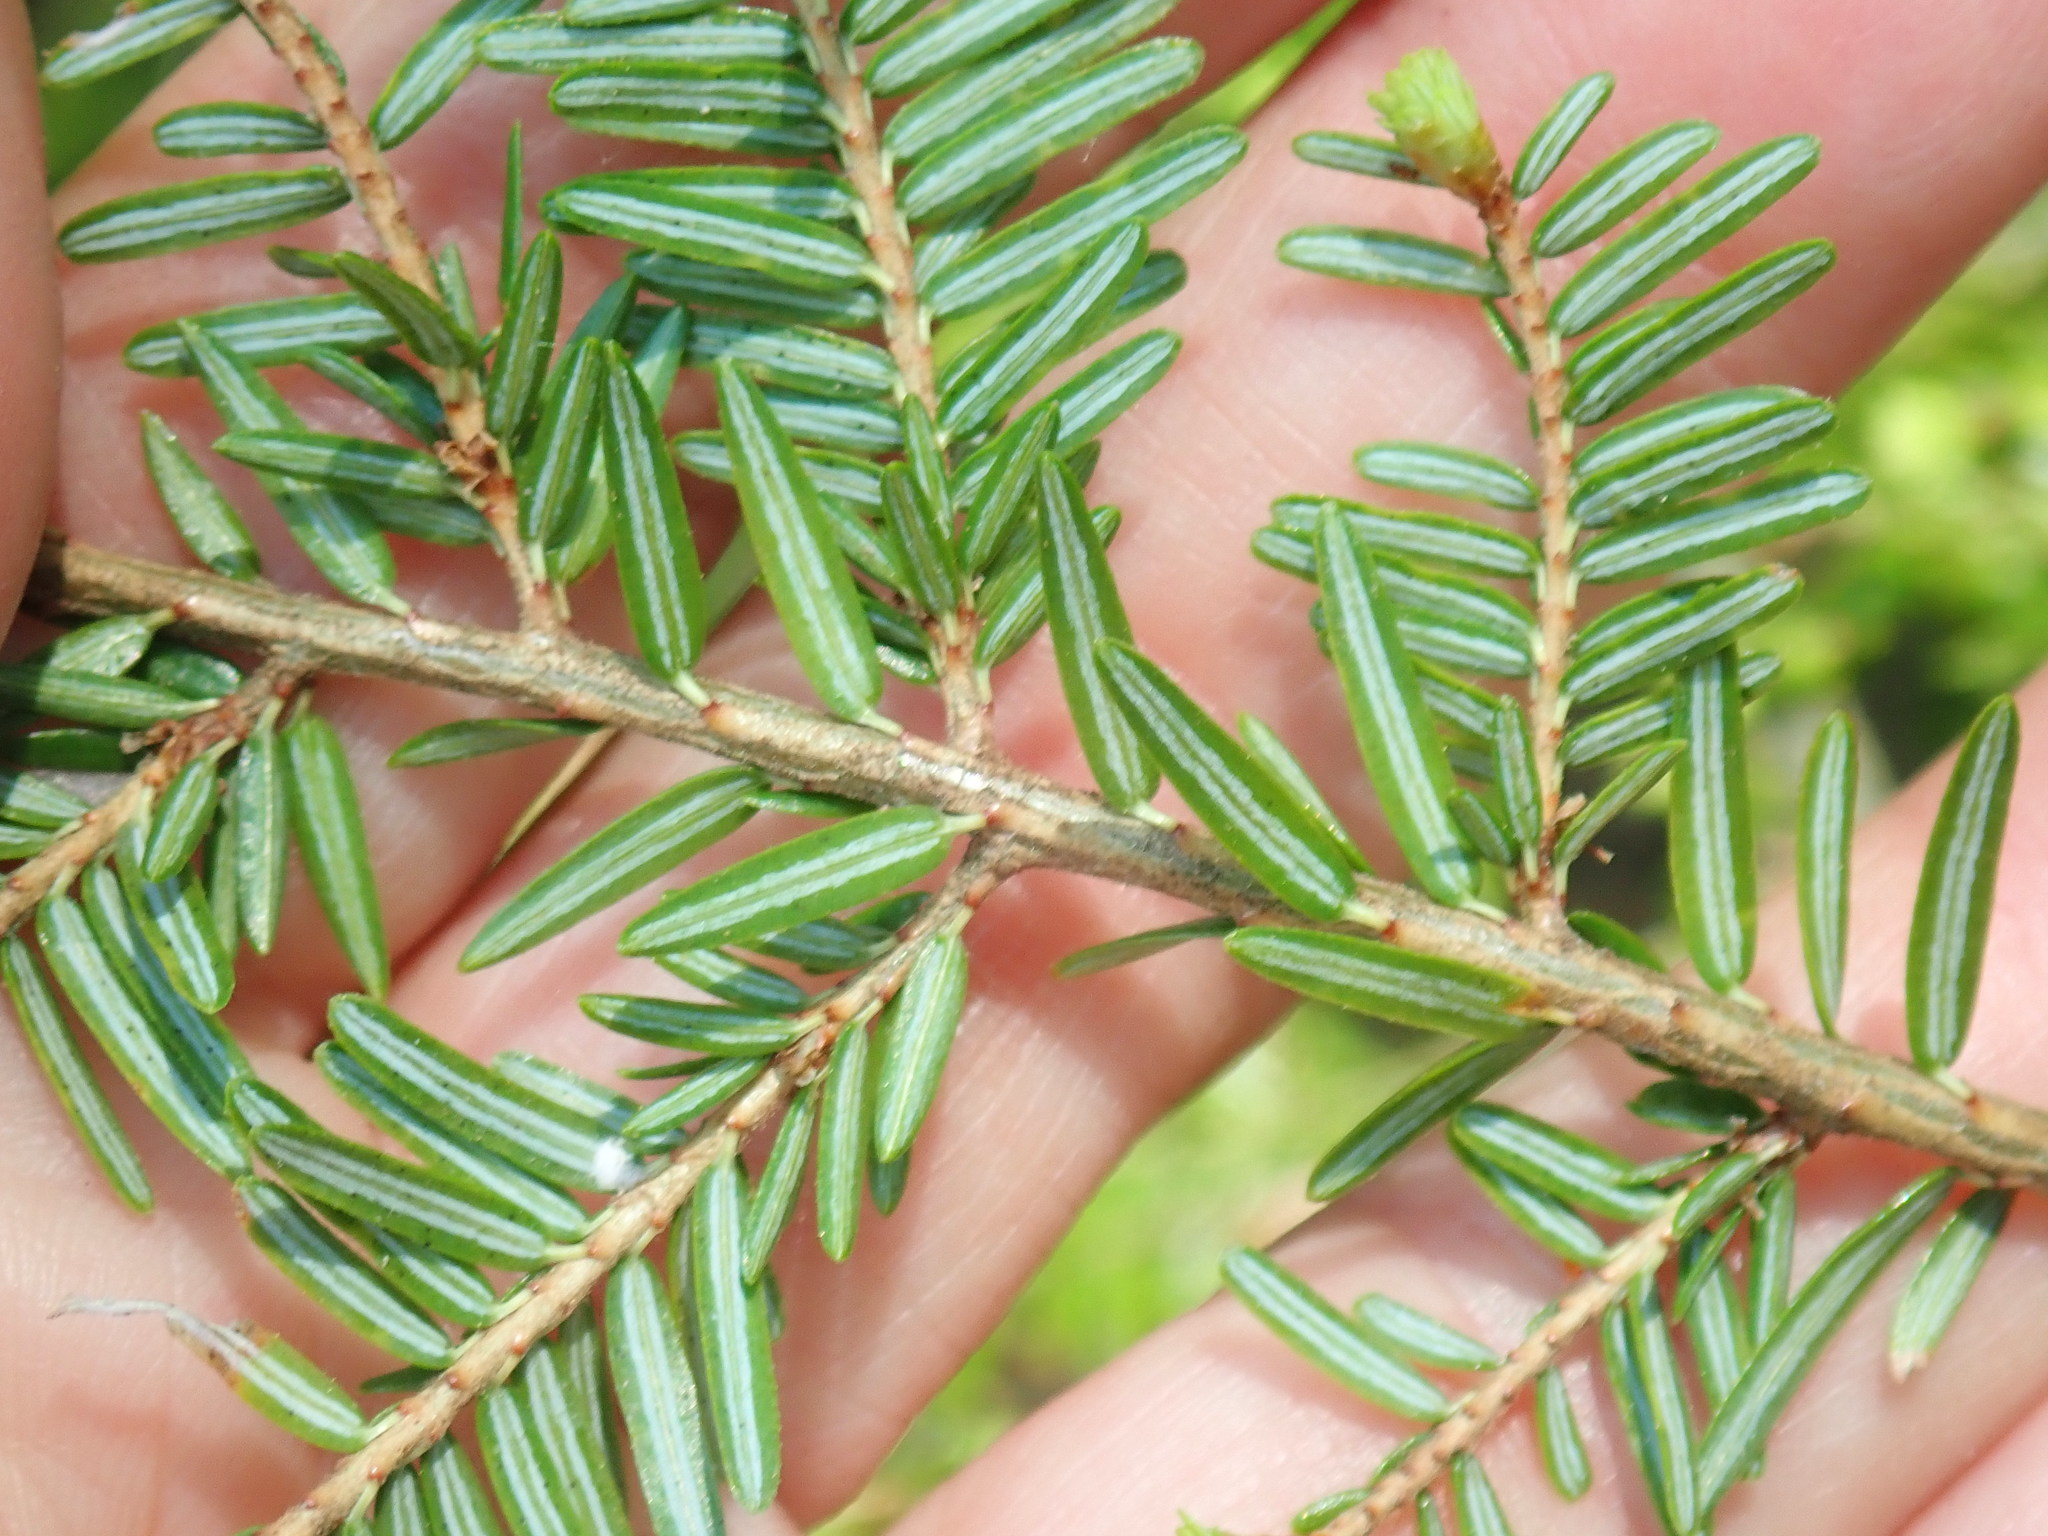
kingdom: Plantae
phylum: Tracheophyta
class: Pinopsida
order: Pinales
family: Pinaceae
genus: Tsuga
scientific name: Tsuga canadensis
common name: Eastern hemlock
